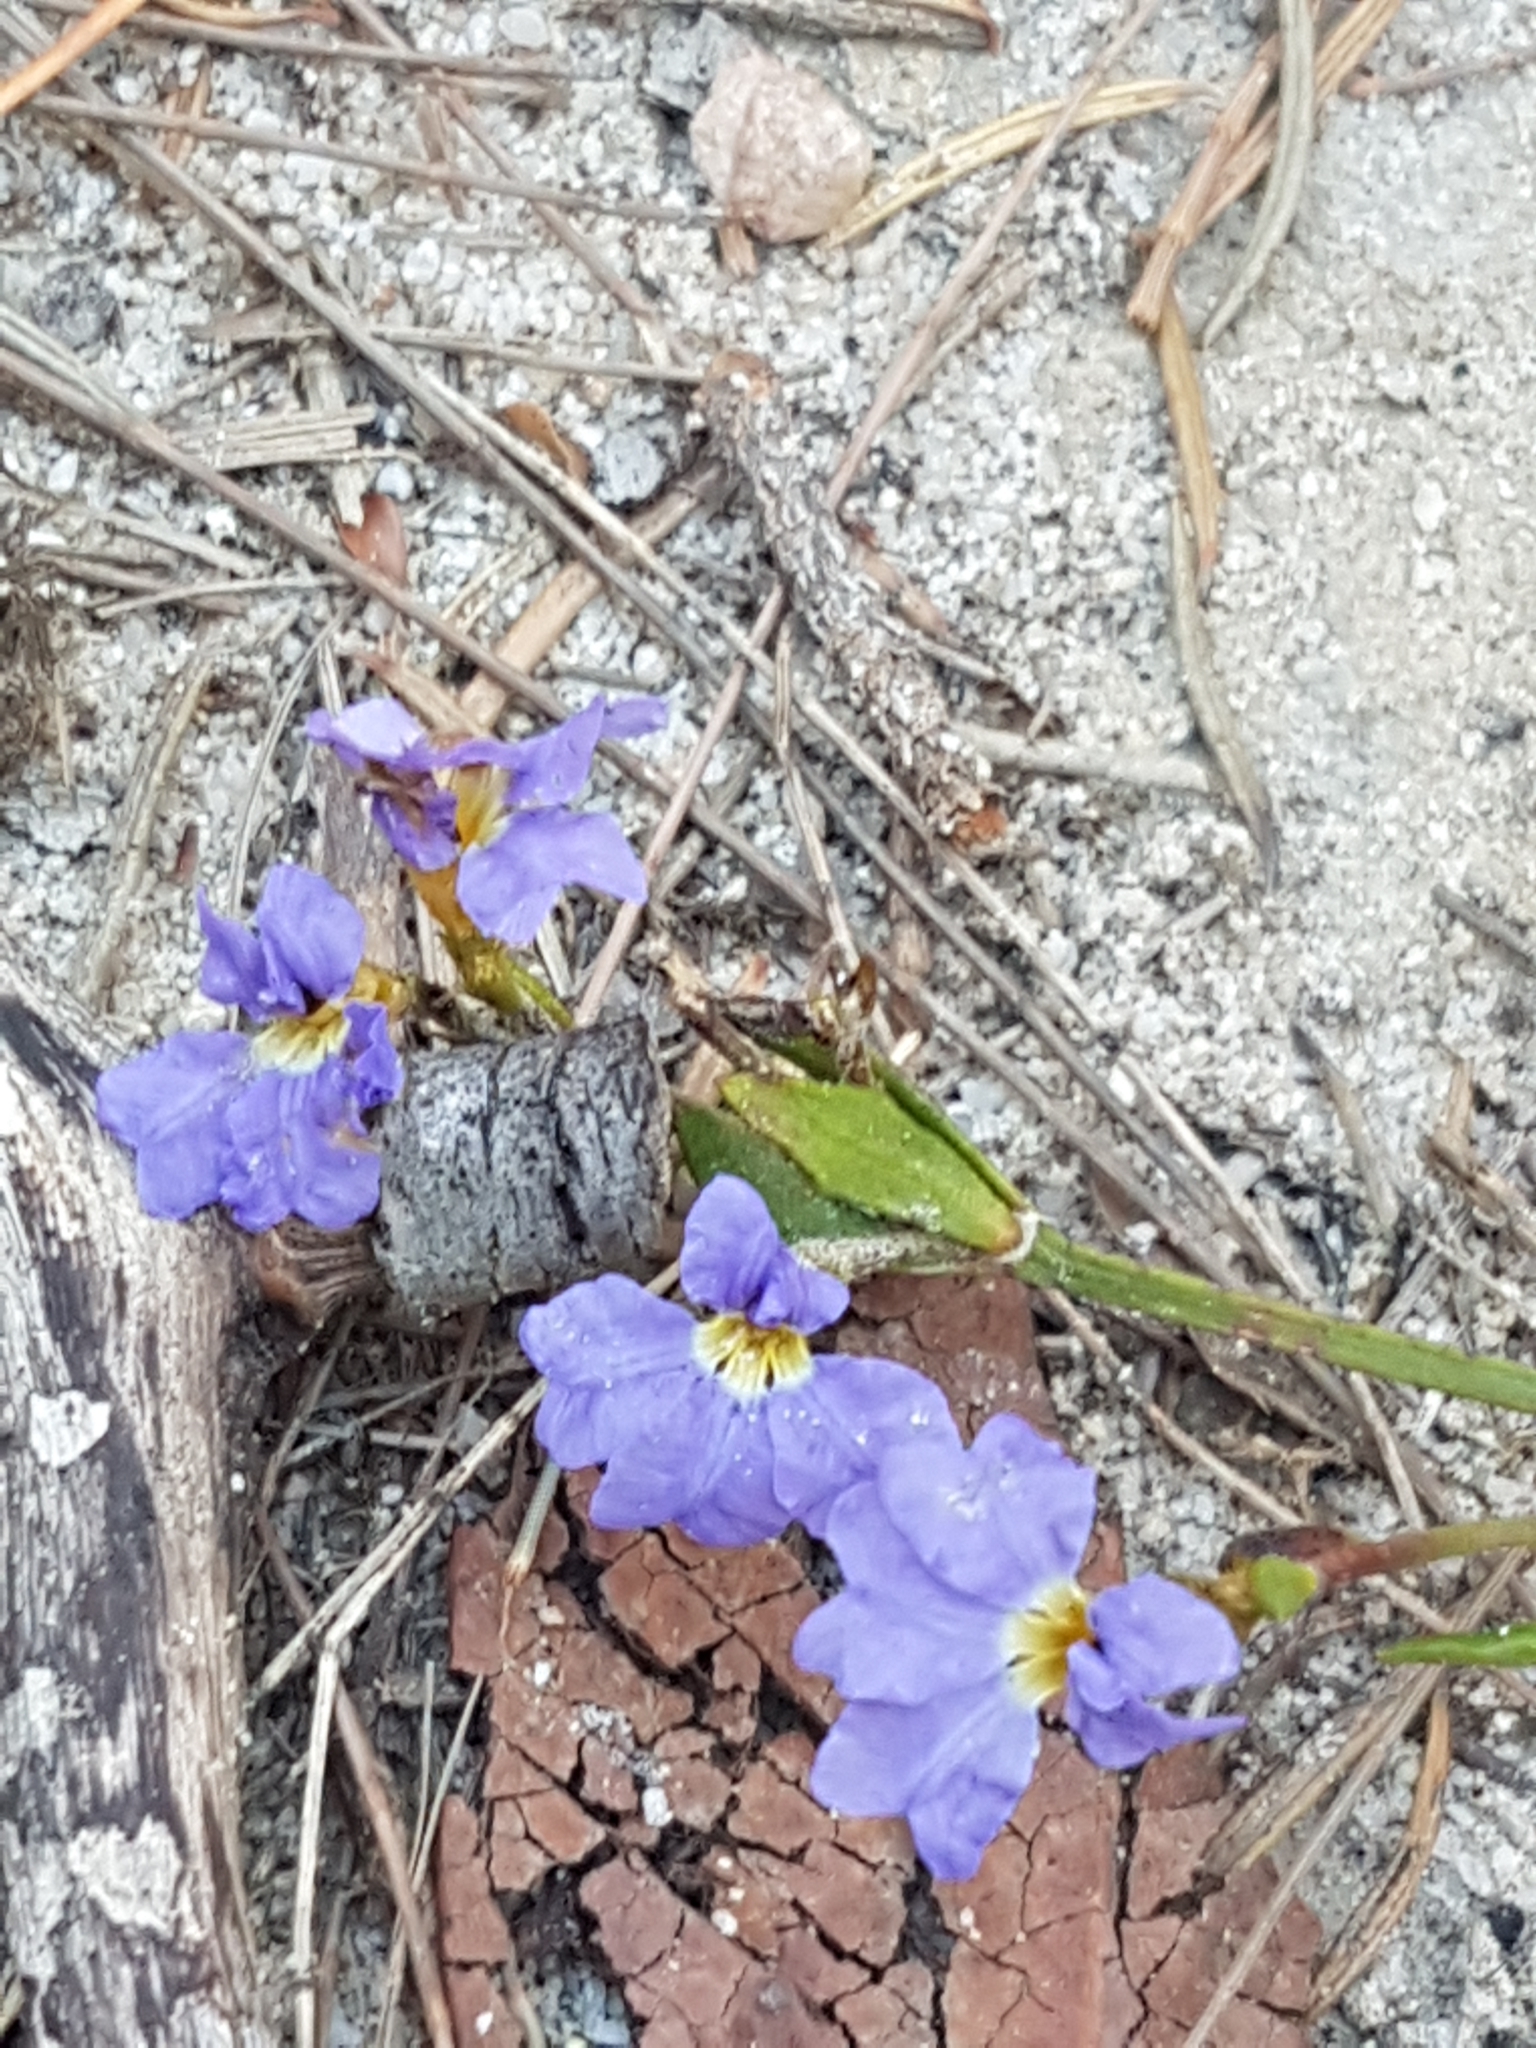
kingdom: Plantae
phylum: Tracheophyta
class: Magnoliopsida
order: Asterales
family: Goodeniaceae
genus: Dampiera
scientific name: Dampiera purpurea
